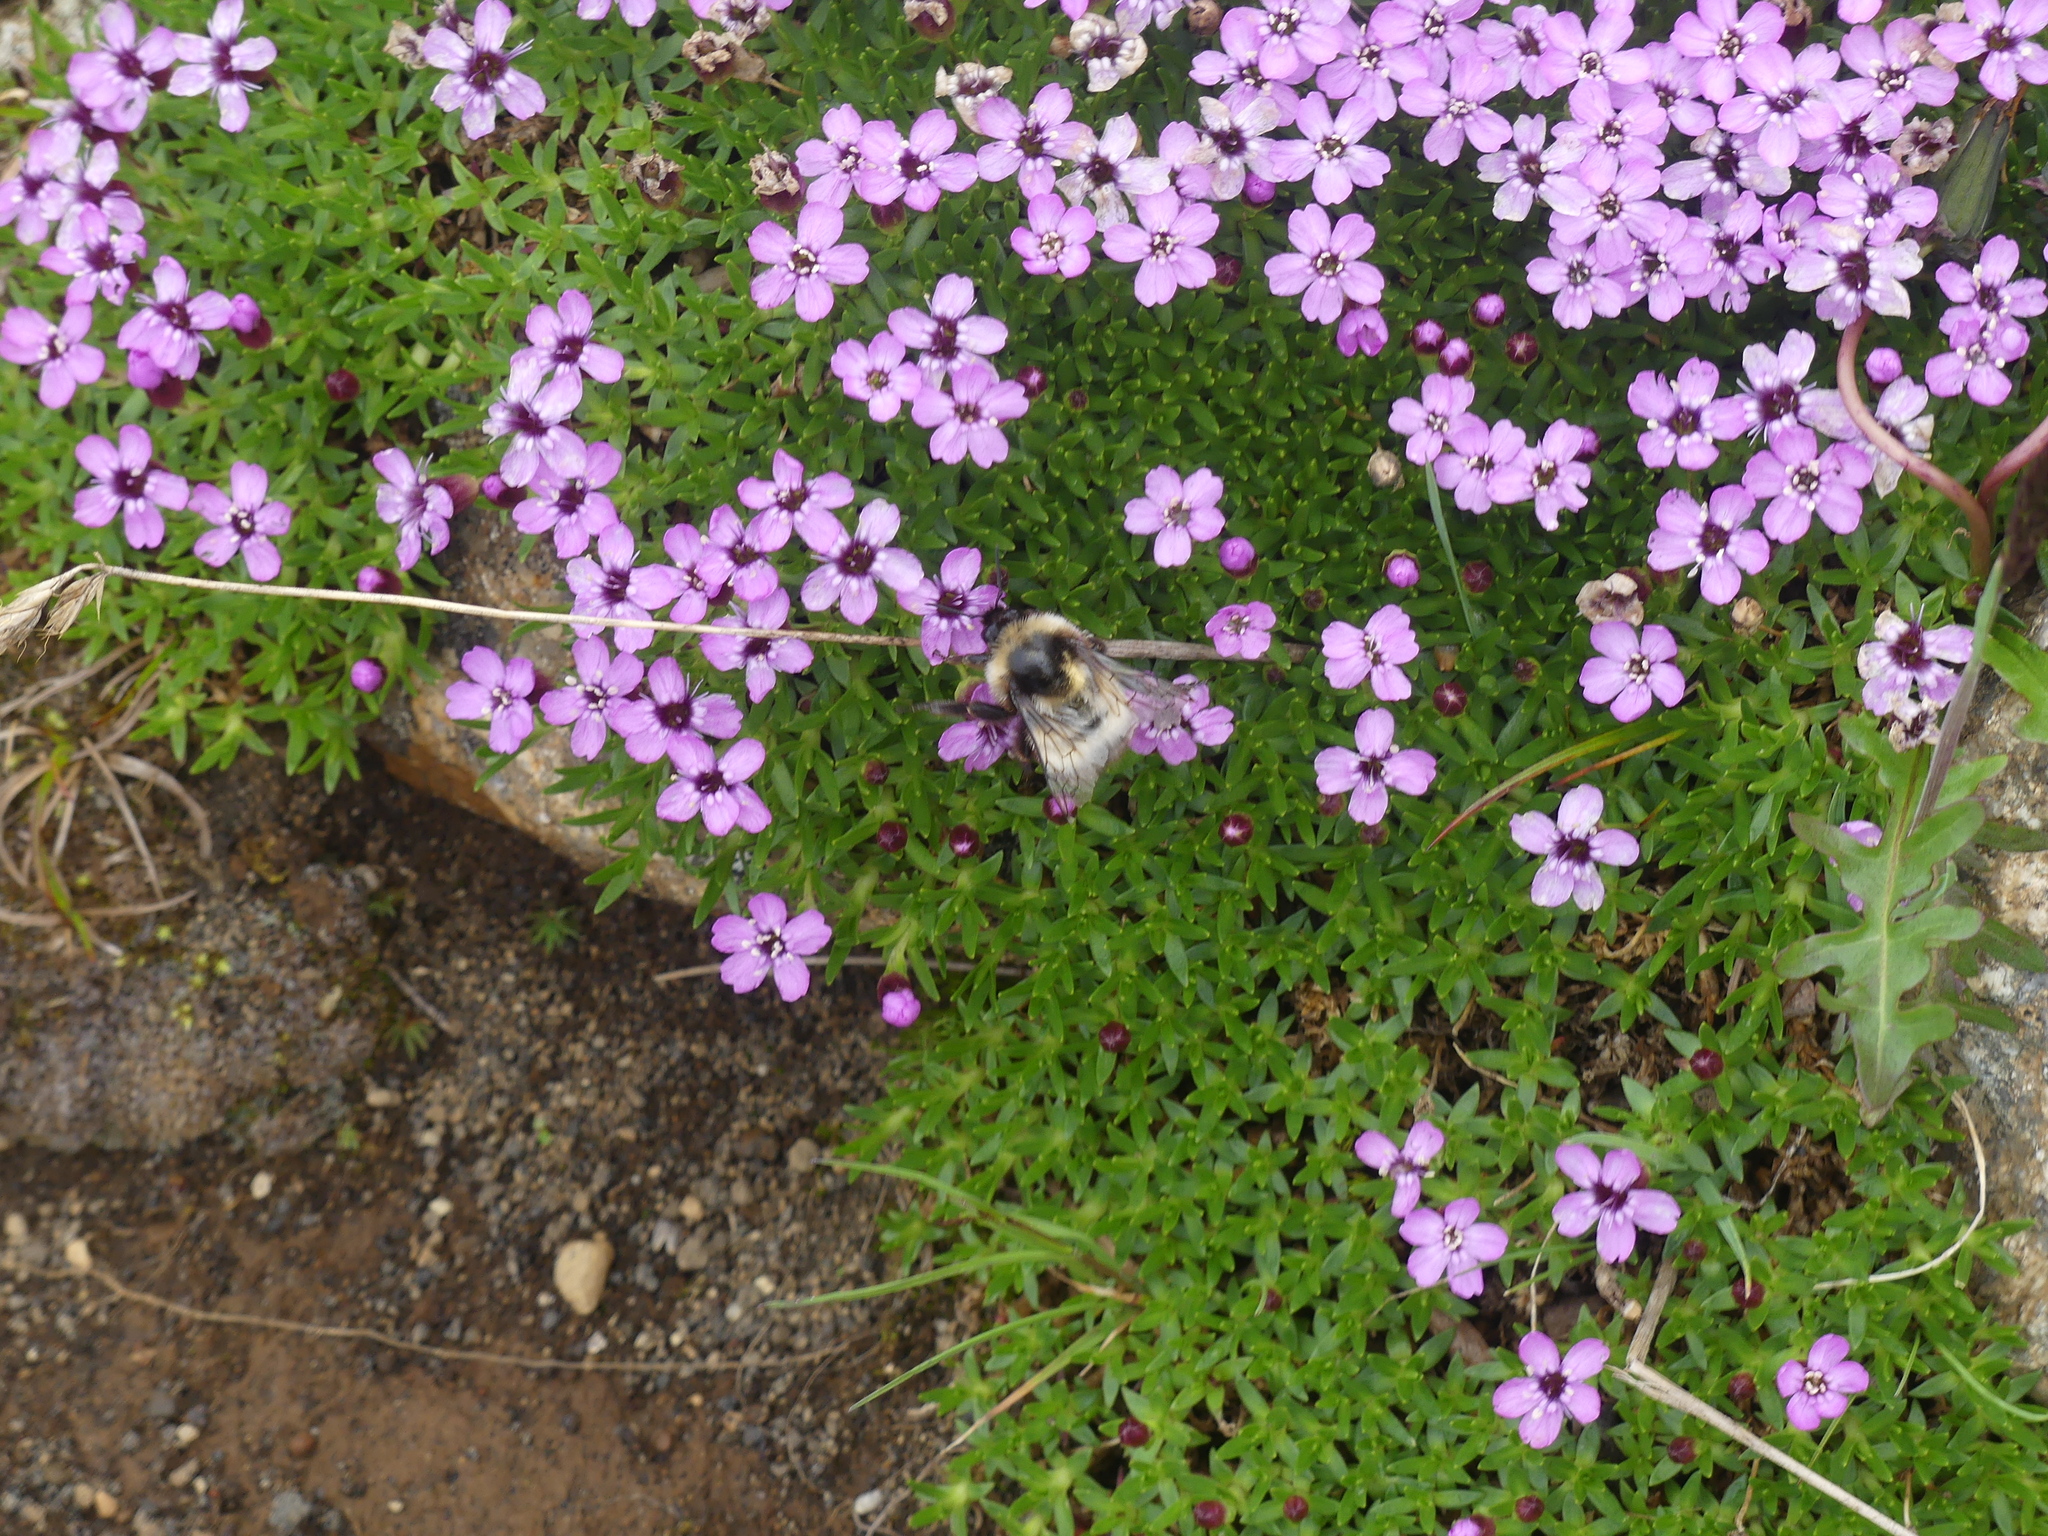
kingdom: Plantae
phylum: Tracheophyta
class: Magnoliopsida
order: Caryophyllales
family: Caryophyllaceae
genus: Silene
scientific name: Silene acaulis
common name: Moss campion
